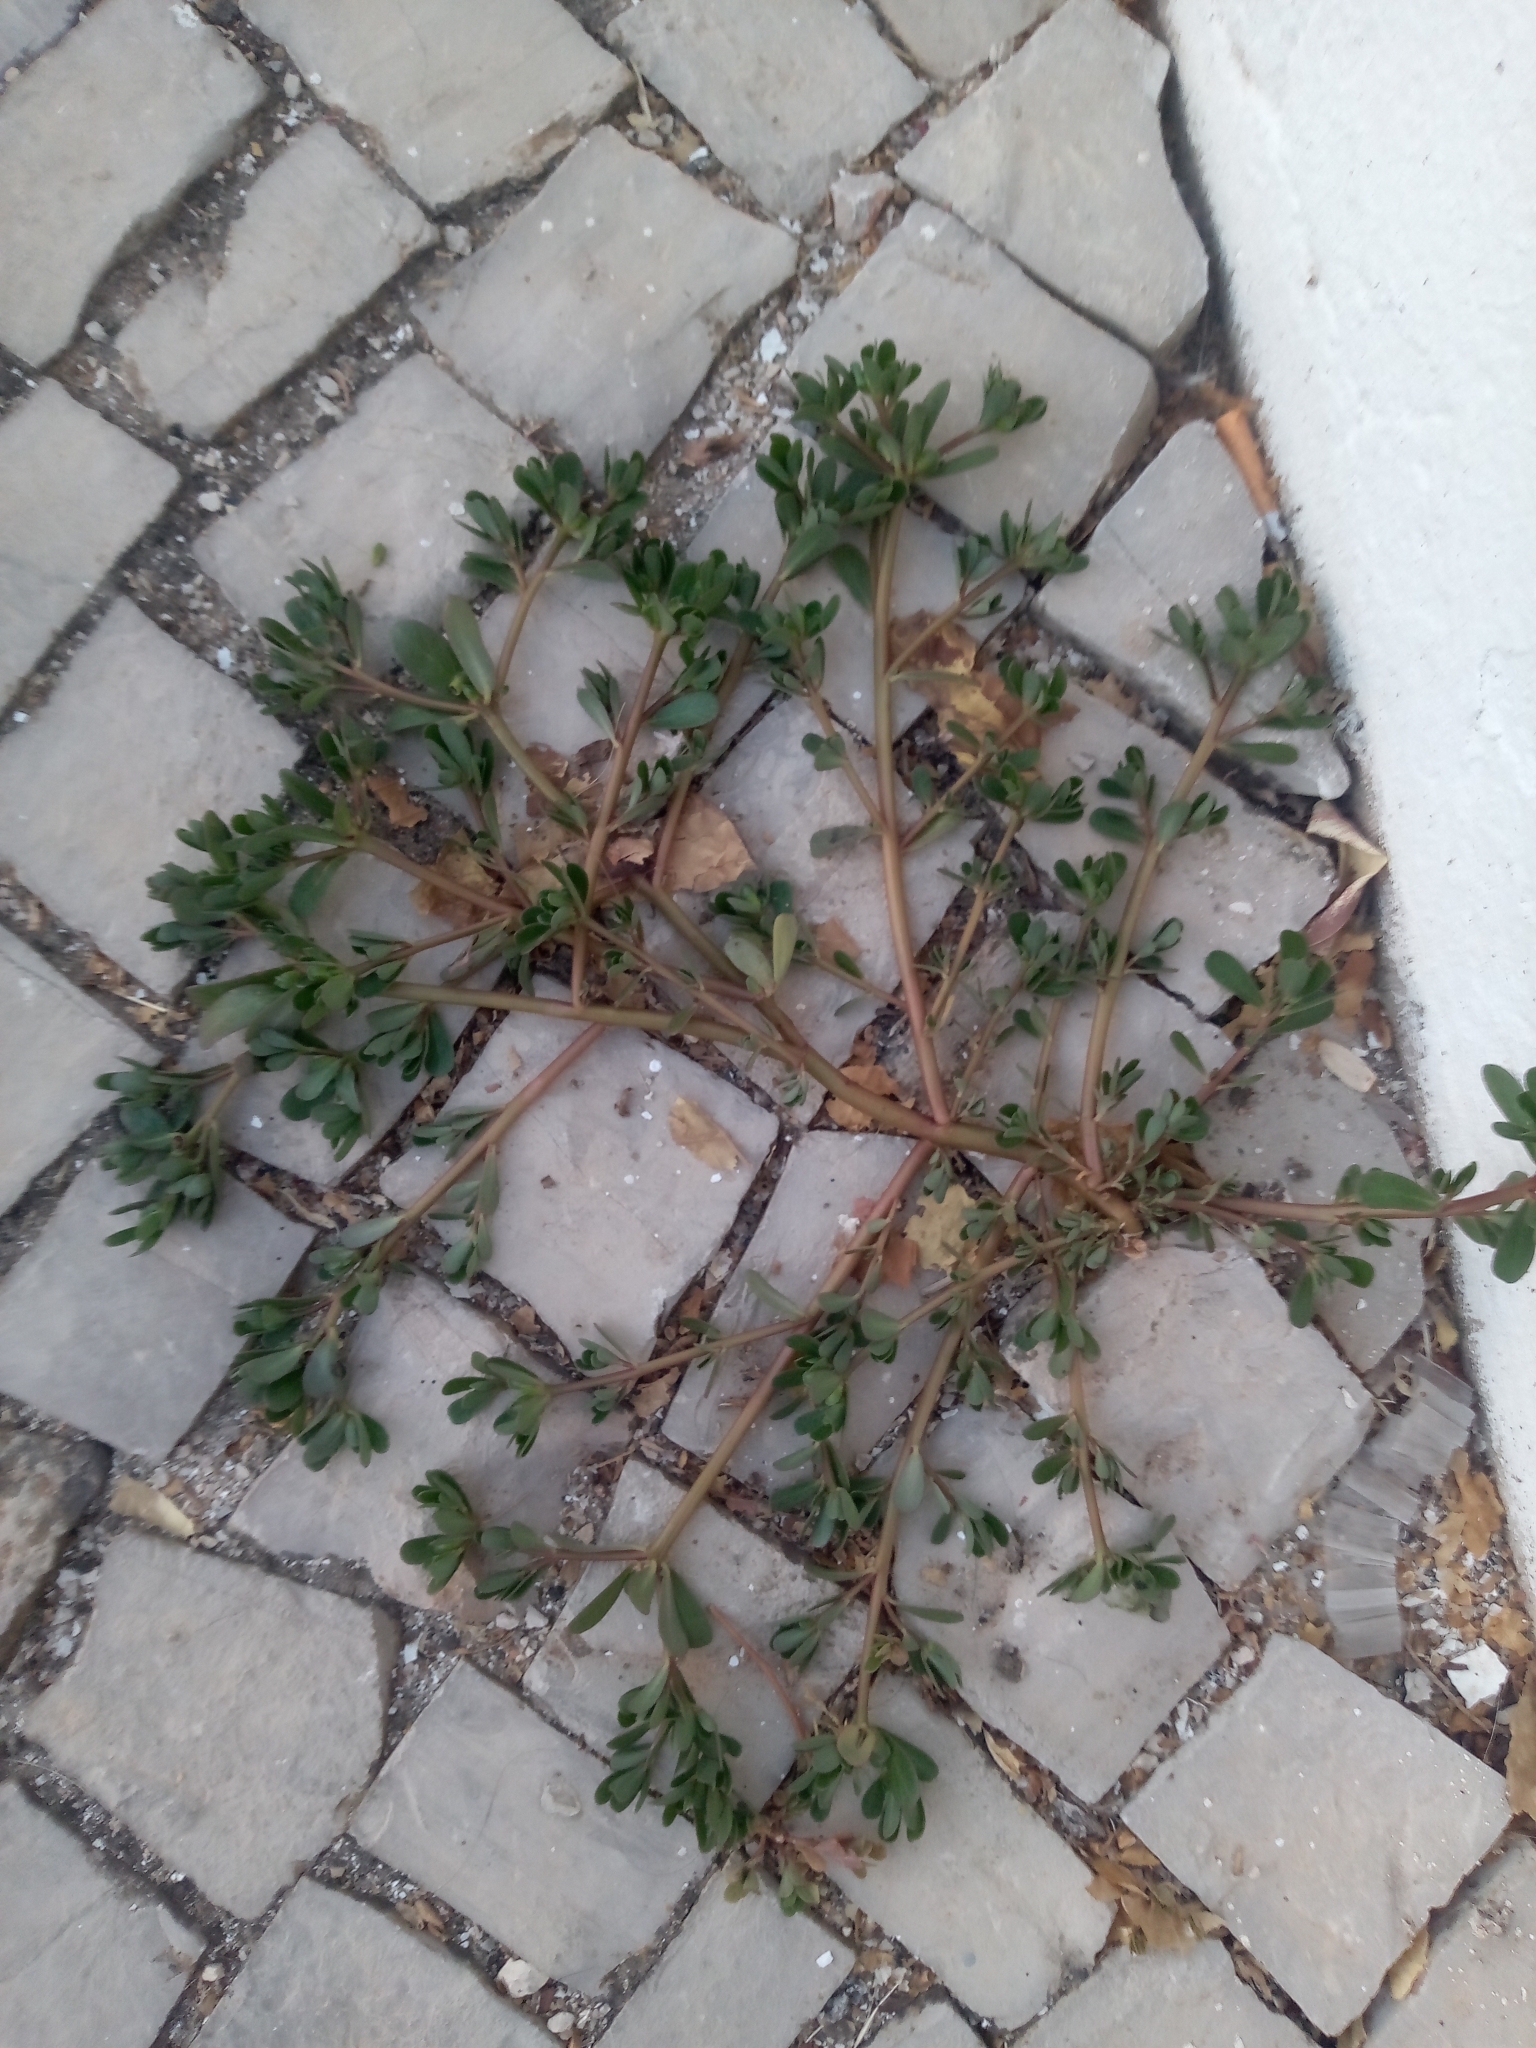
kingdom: Plantae
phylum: Tracheophyta
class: Magnoliopsida
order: Caryophyllales
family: Portulacaceae
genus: Portulaca
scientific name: Portulaca oleracea
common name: Common purslane
